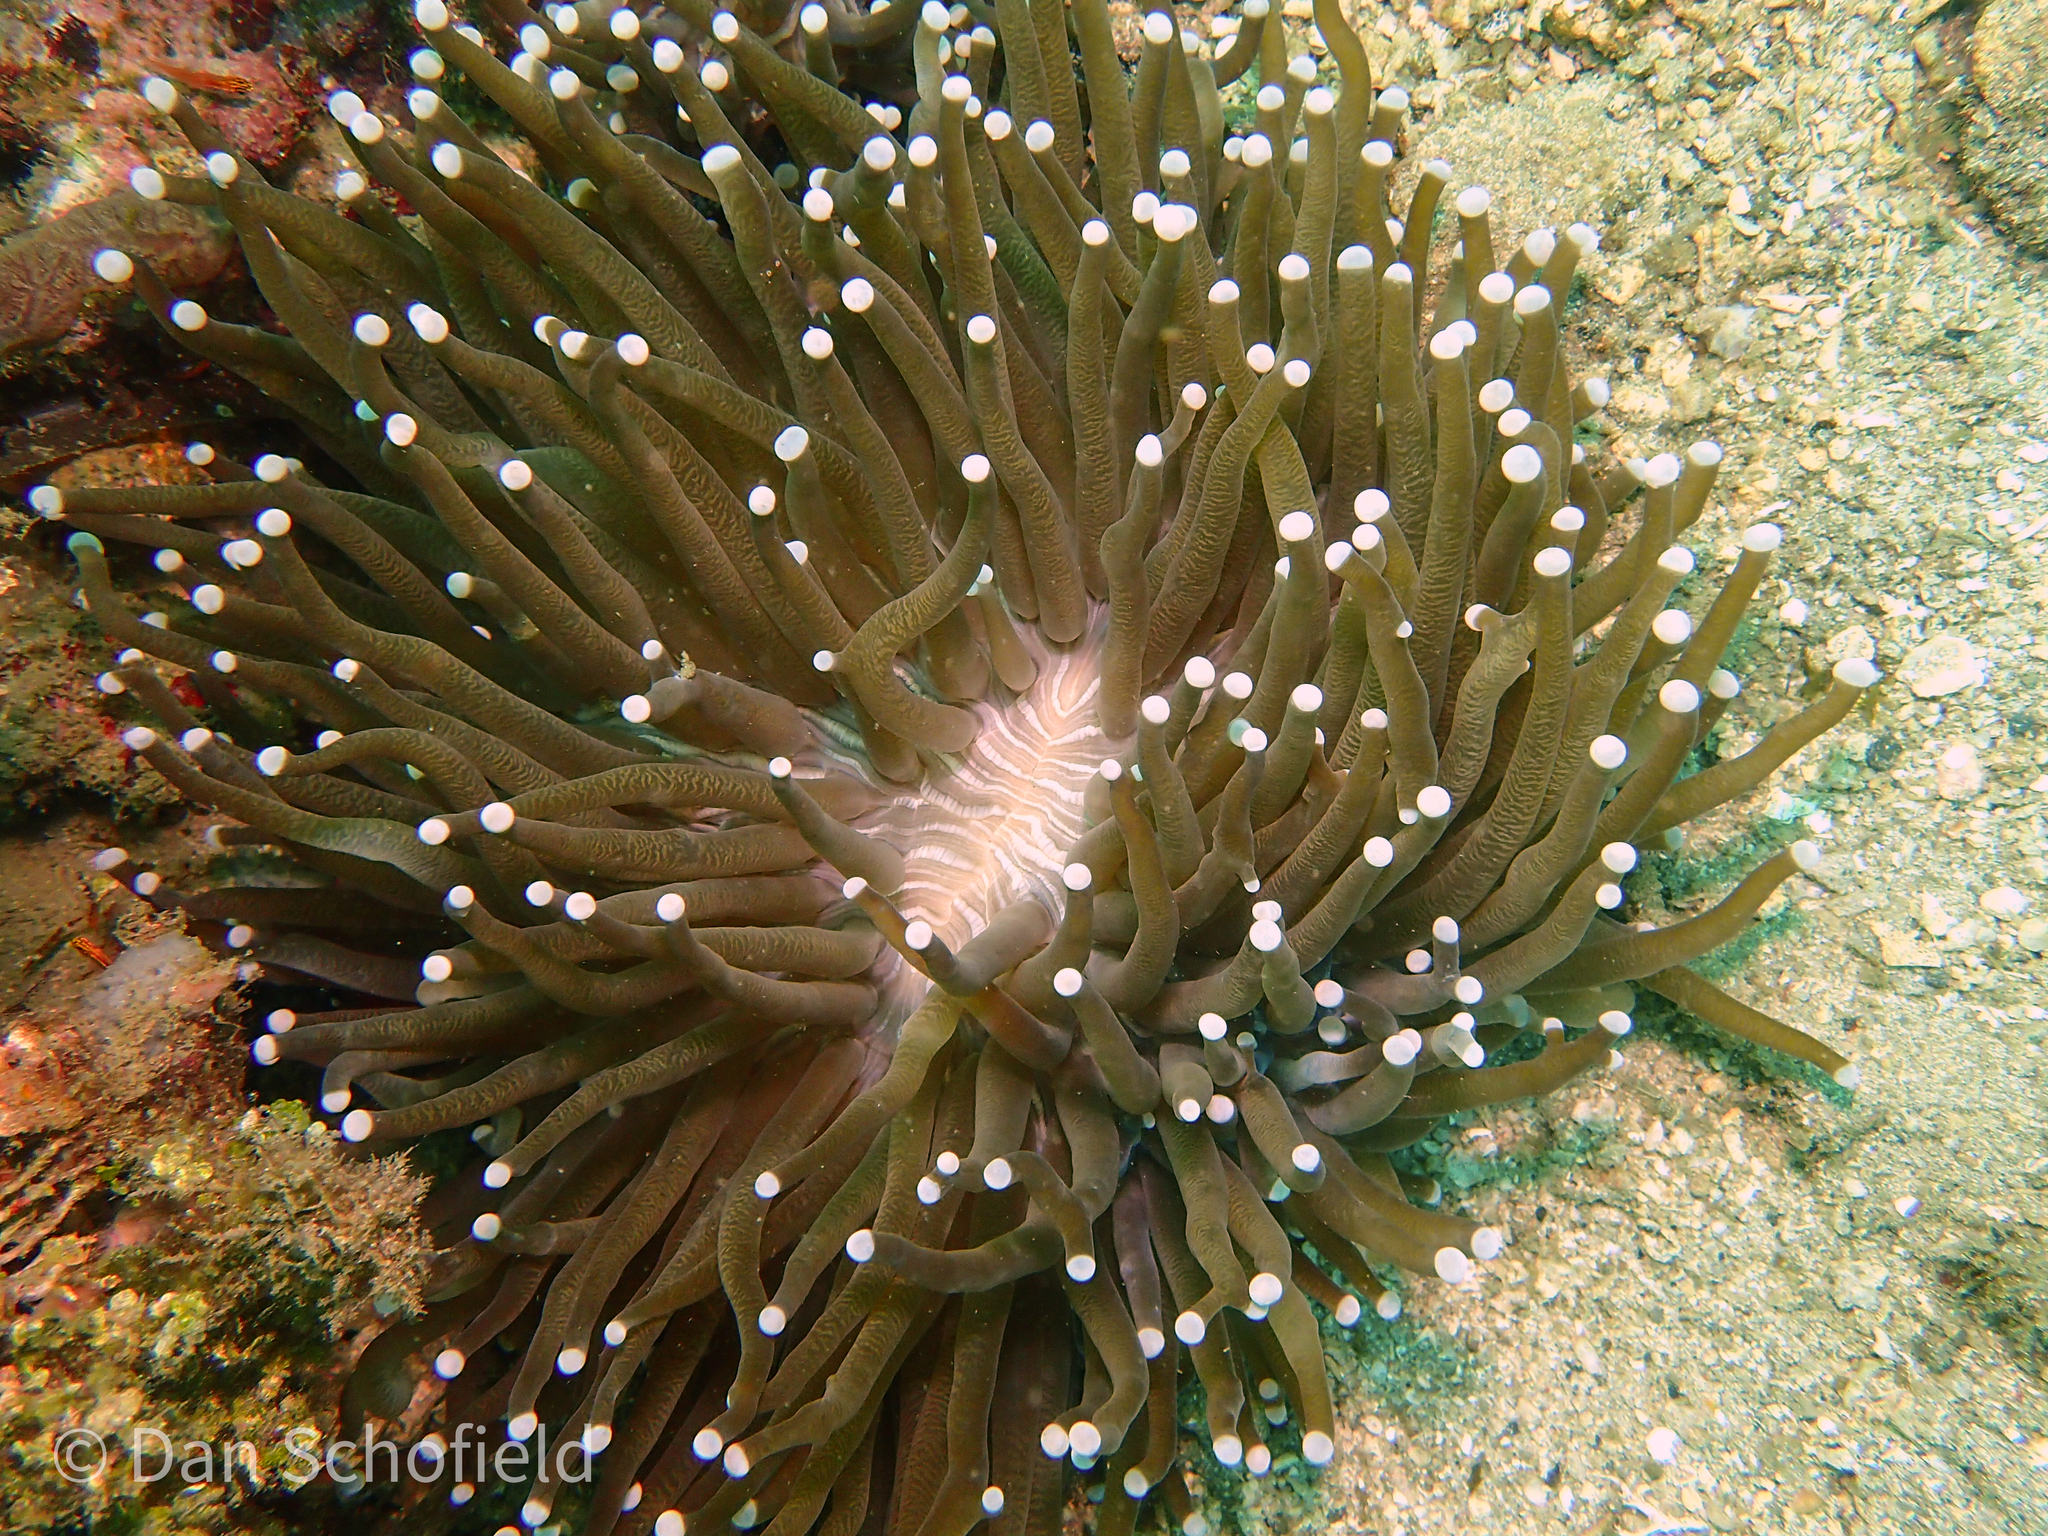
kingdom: Animalia
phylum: Cnidaria
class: Anthozoa
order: Scleractinia
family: Fungiidae
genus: Heliofungia
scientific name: Heliofungia actiniformis
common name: Plate coral
